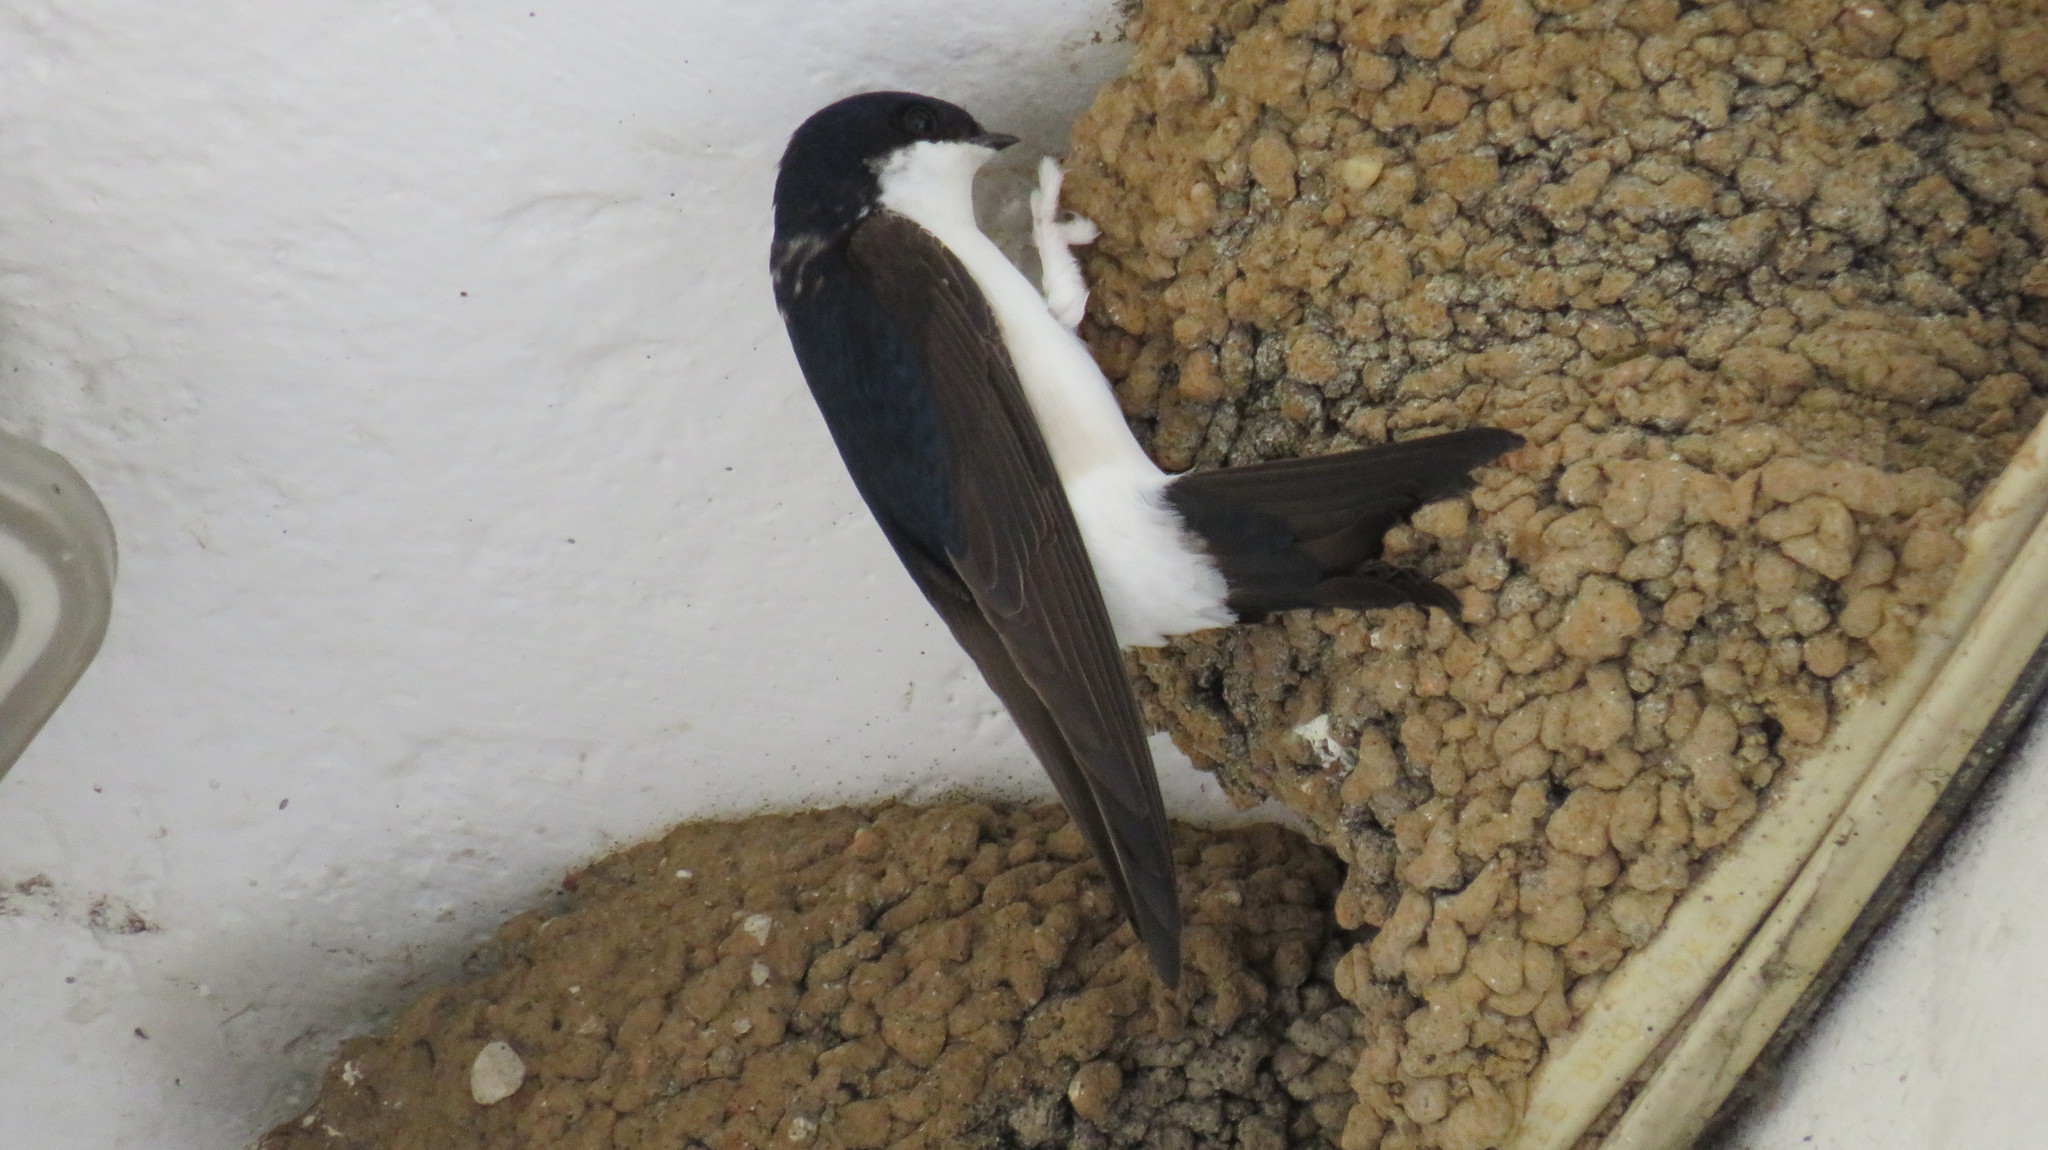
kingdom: Animalia
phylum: Chordata
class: Aves
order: Passeriformes
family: Hirundinidae
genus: Delichon
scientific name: Delichon urbicum
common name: Common house martin
